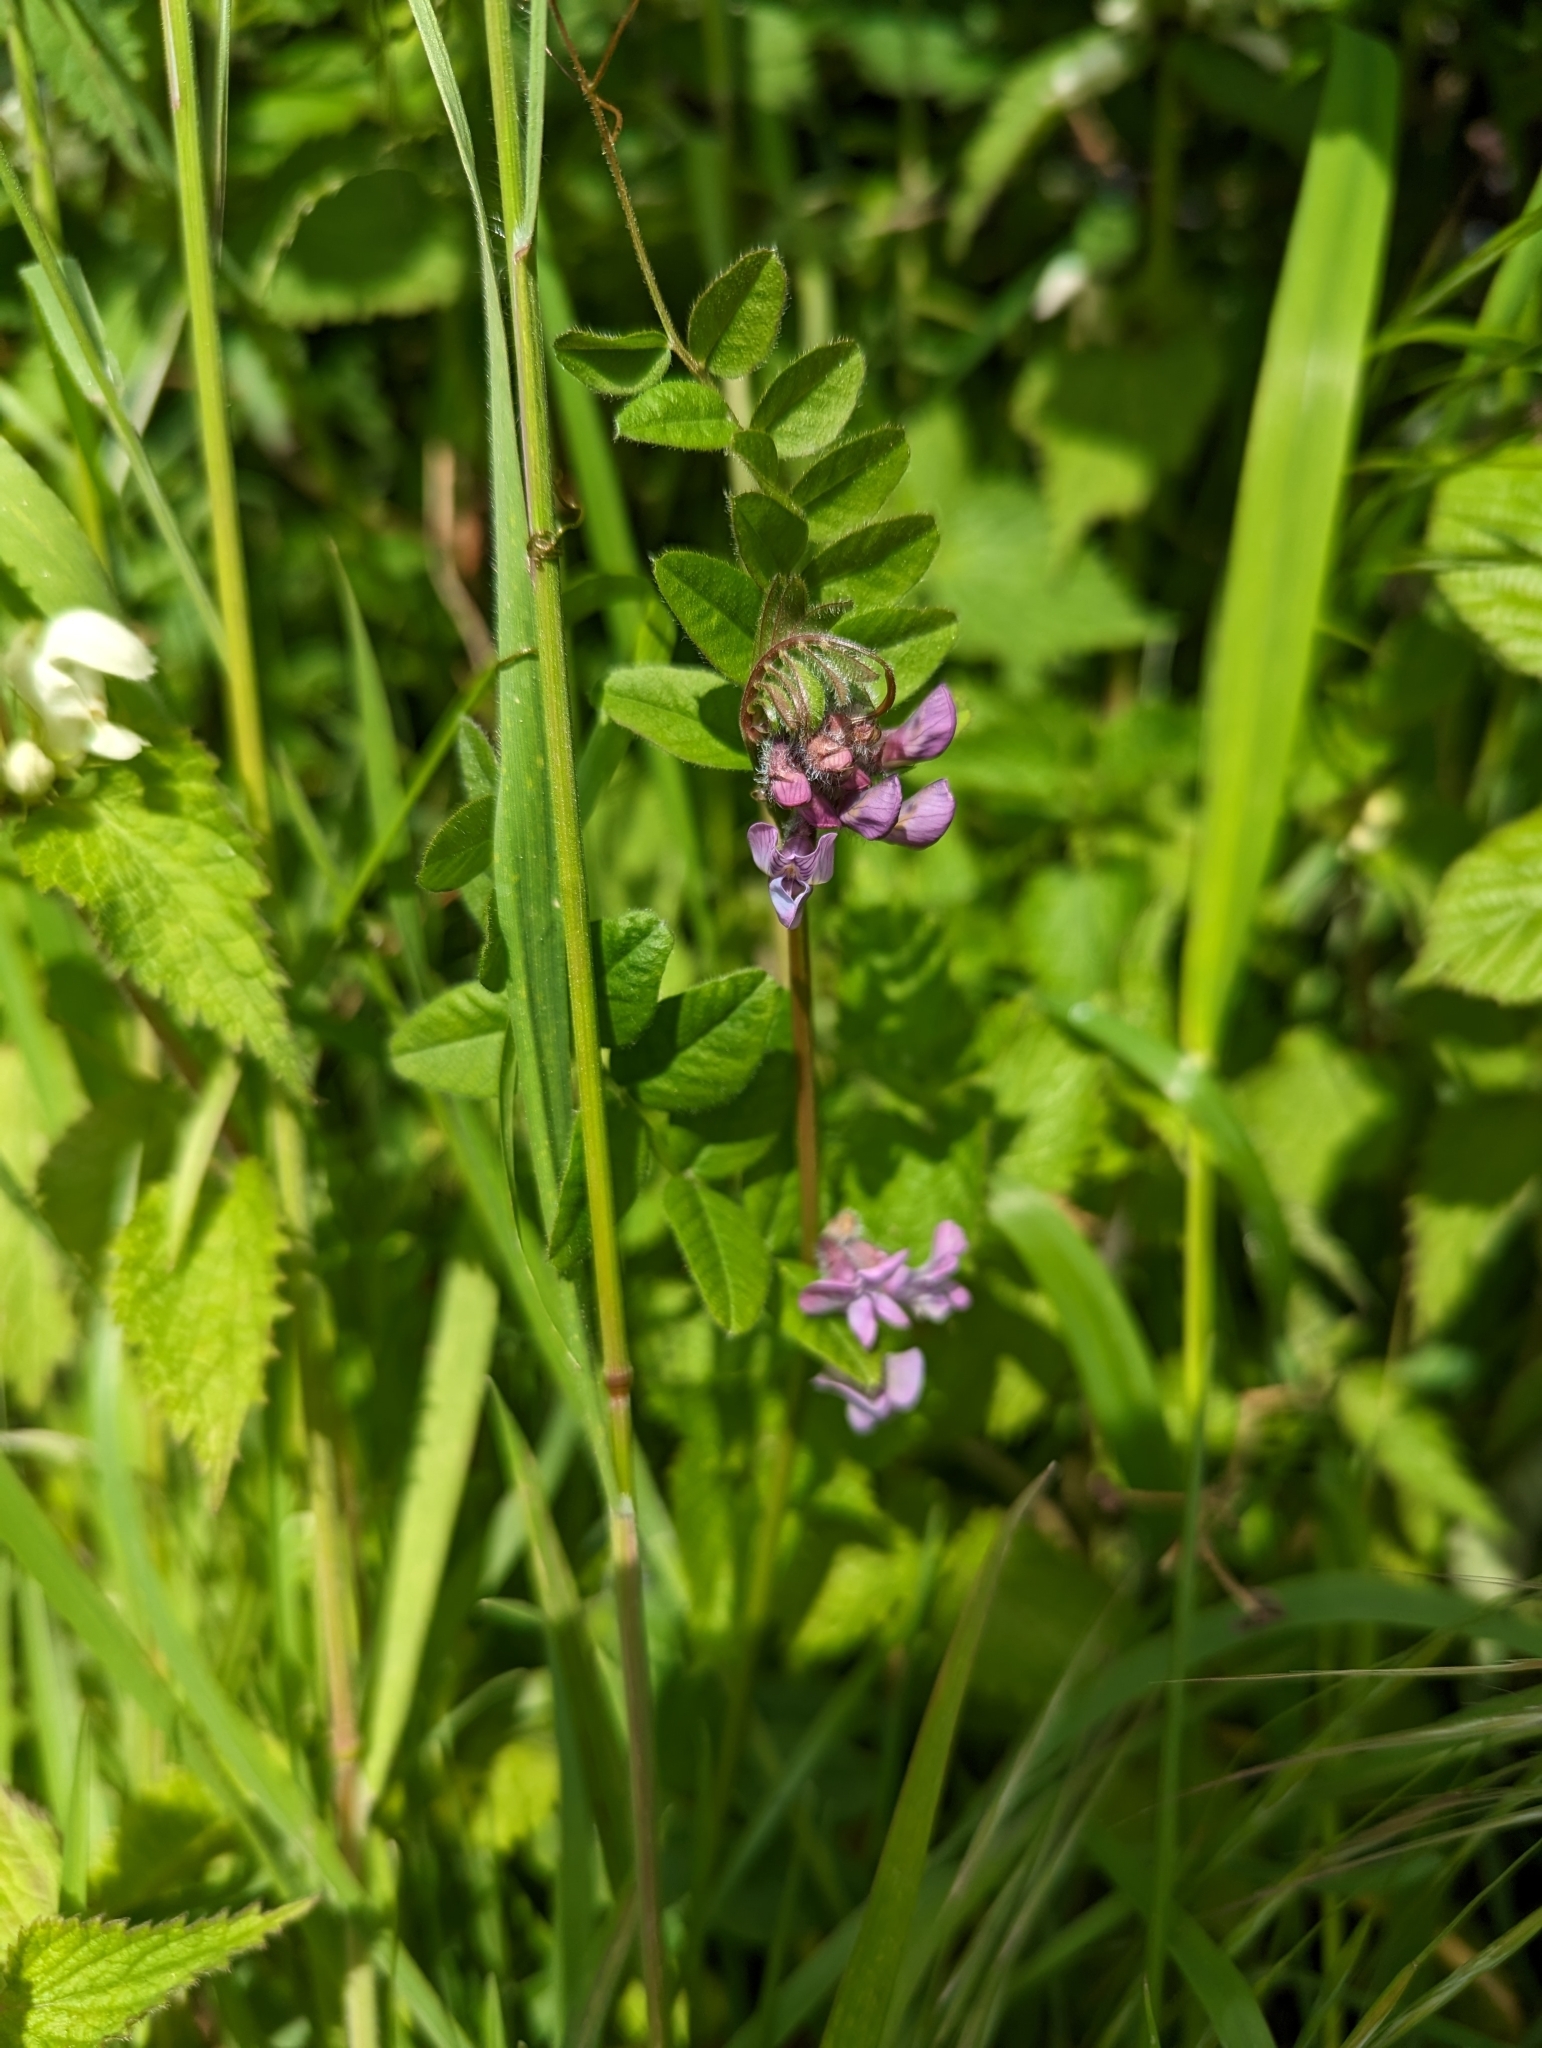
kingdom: Plantae
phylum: Tracheophyta
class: Magnoliopsida
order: Fabales
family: Fabaceae
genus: Vicia
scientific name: Vicia sepium
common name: Bush vetch
